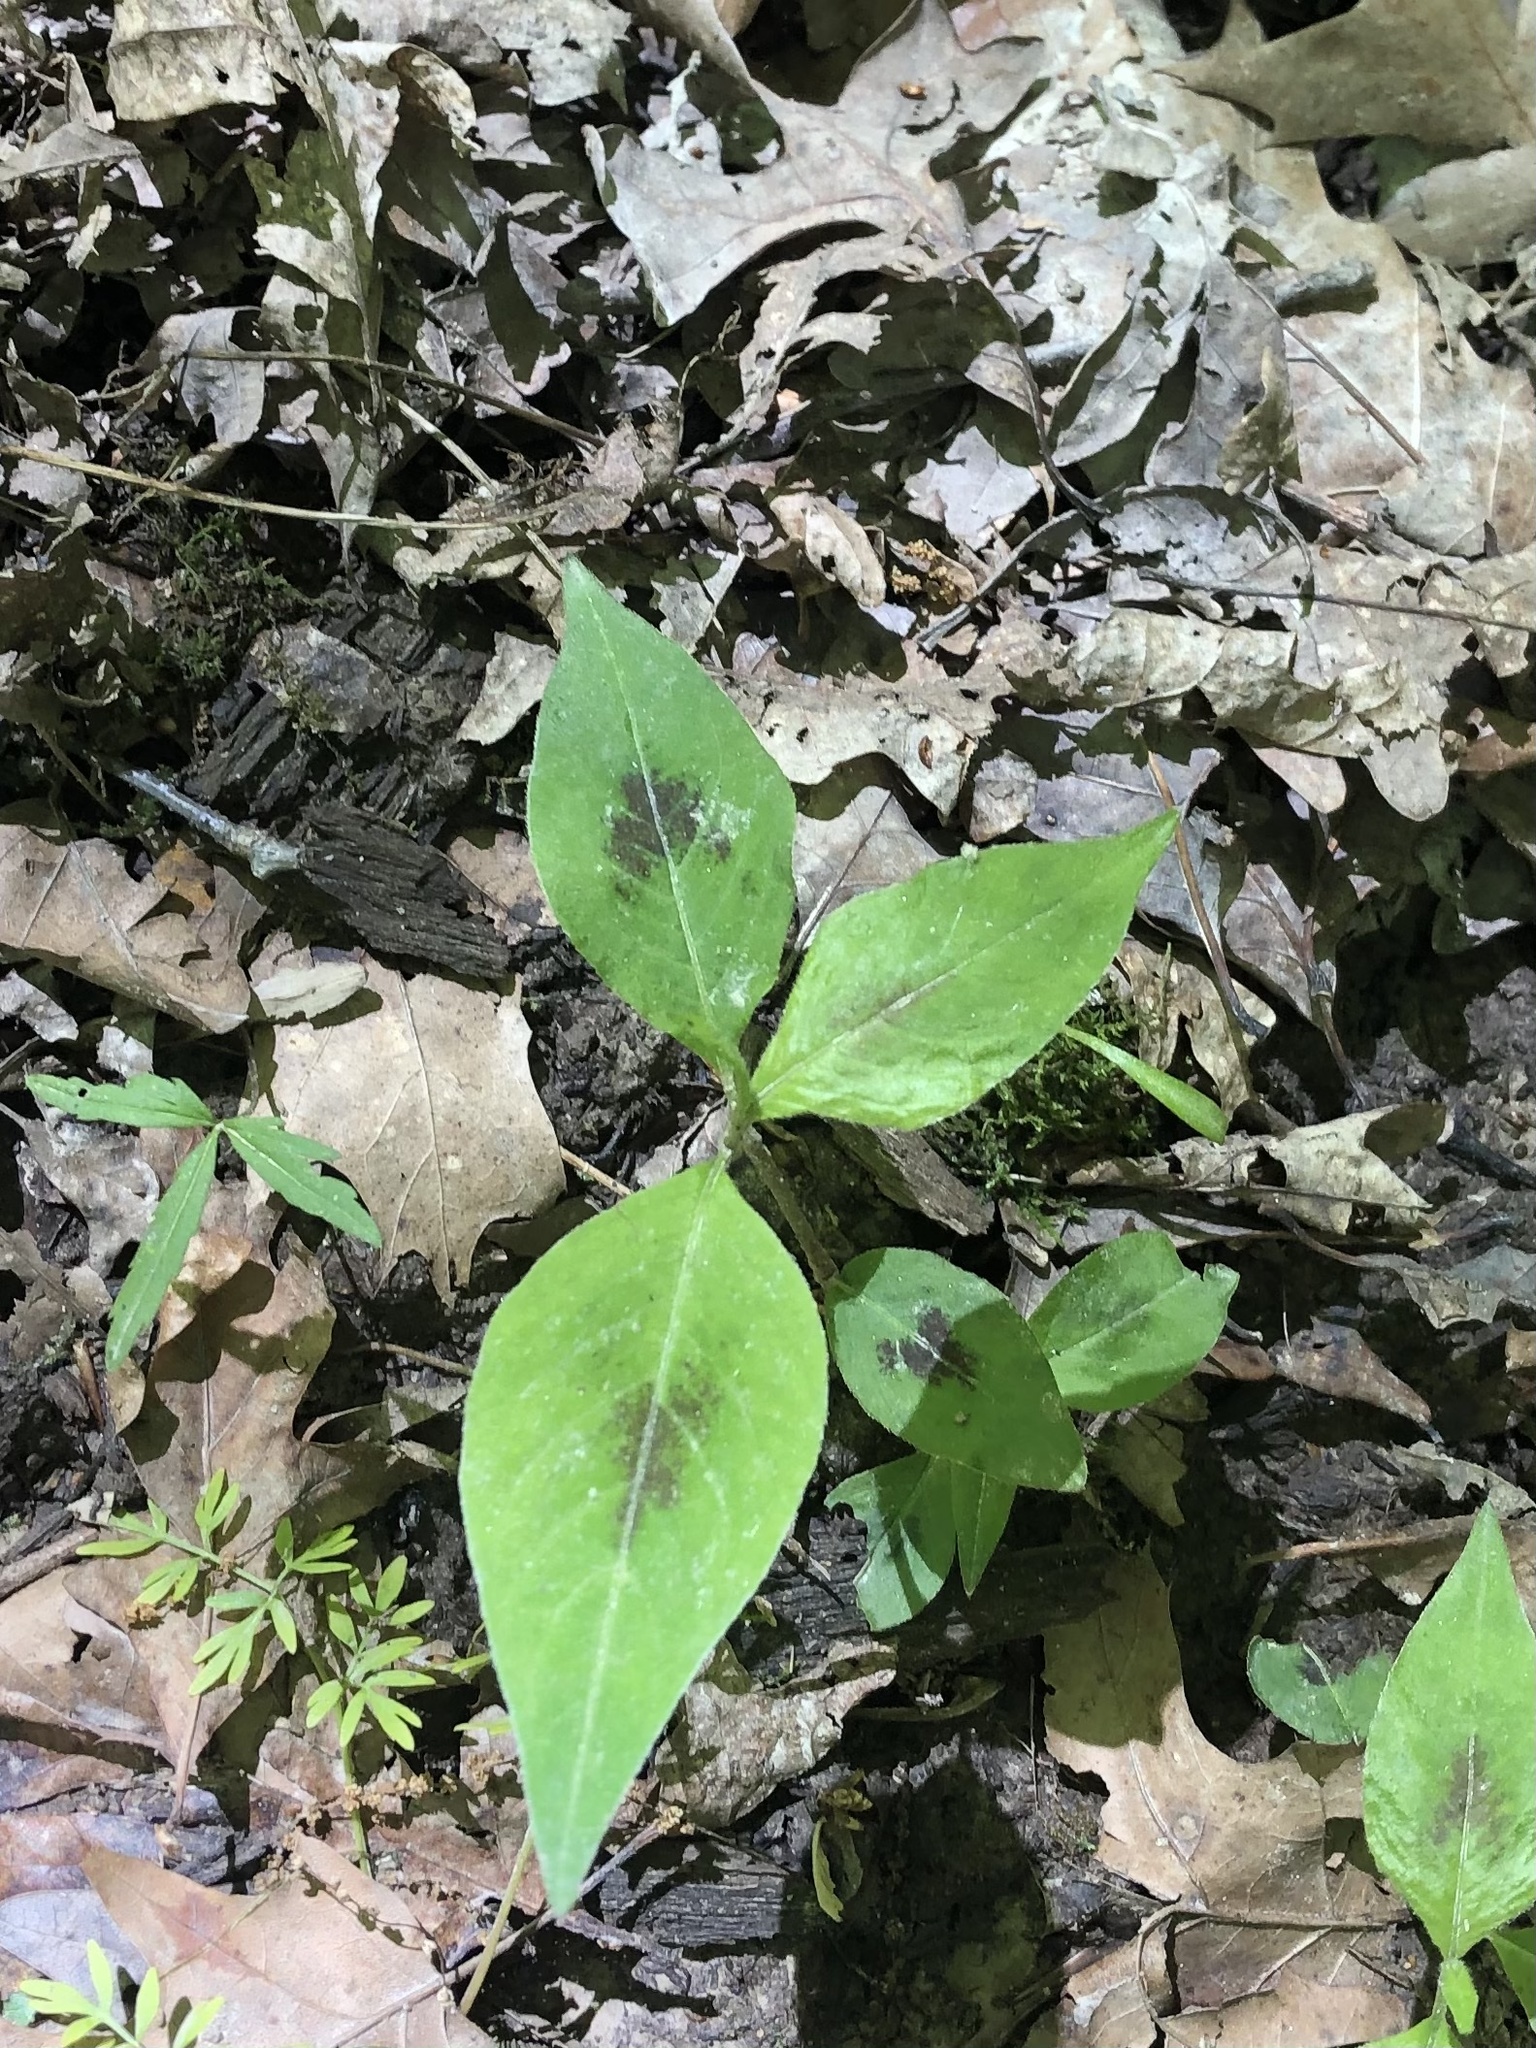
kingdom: Plantae
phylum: Tracheophyta
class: Magnoliopsida
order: Caryophyllales
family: Polygonaceae
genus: Persicaria
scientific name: Persicaria virginiana
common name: Jumpseed
